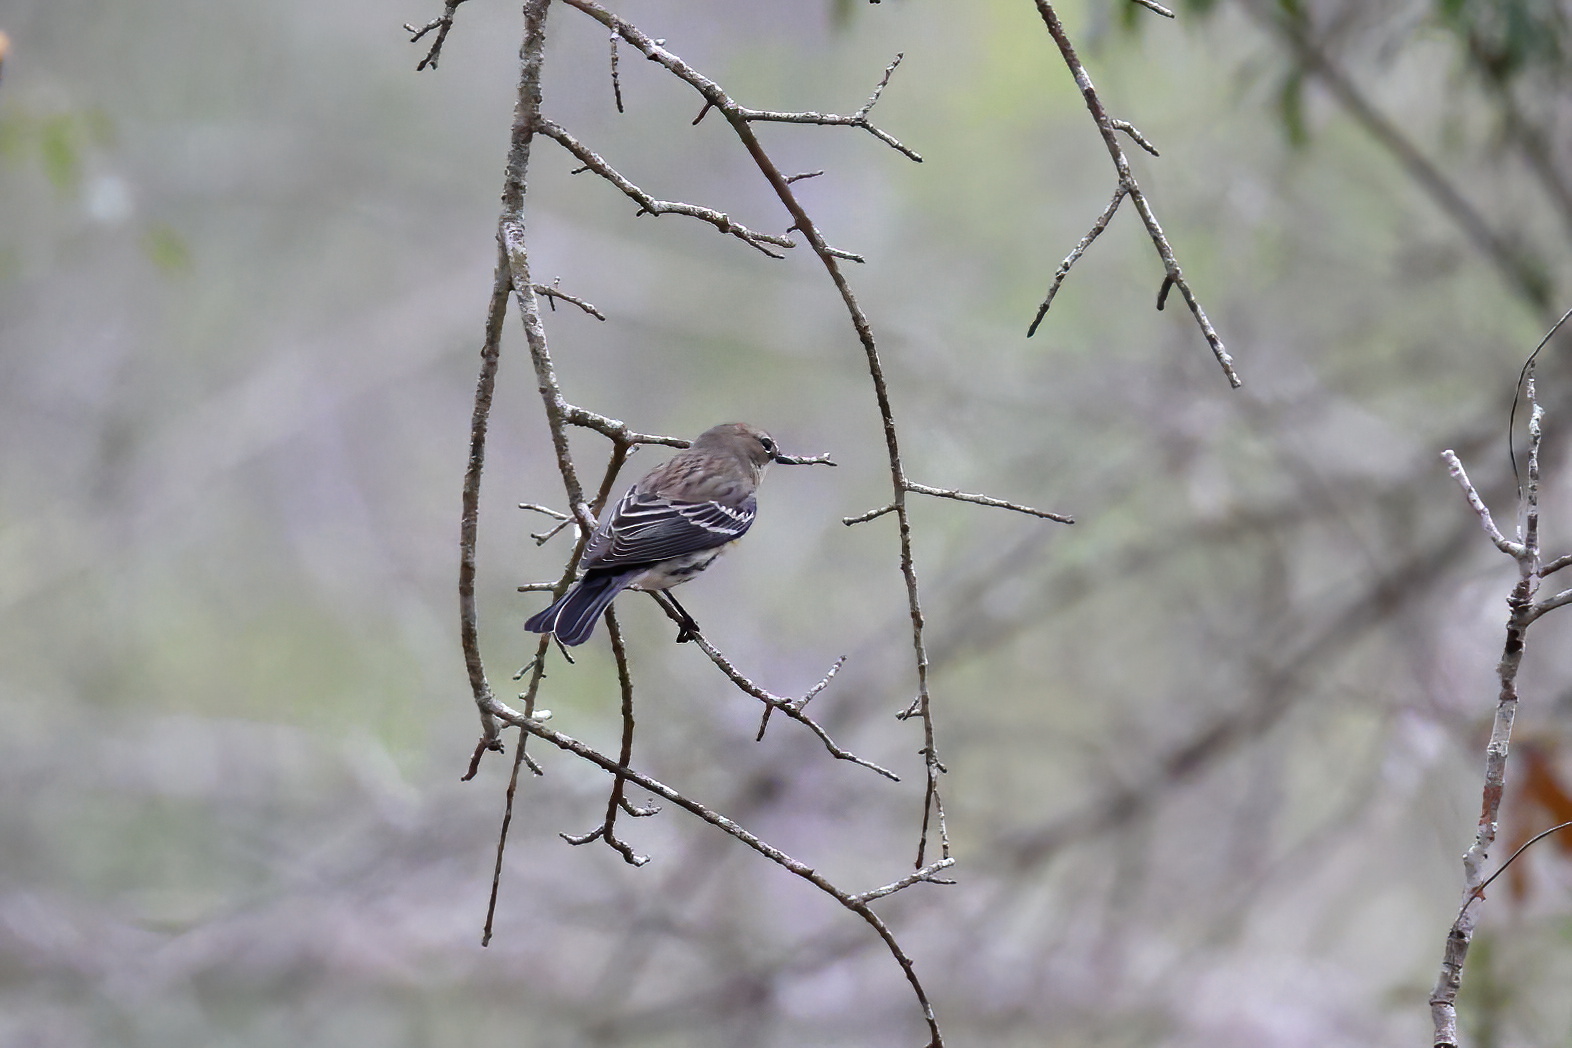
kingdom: Animalia
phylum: Chordata
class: Aves
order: Passeriformes
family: Parulidae
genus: Setophaga
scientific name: Setophaga coronata
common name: Myrtle warbler
